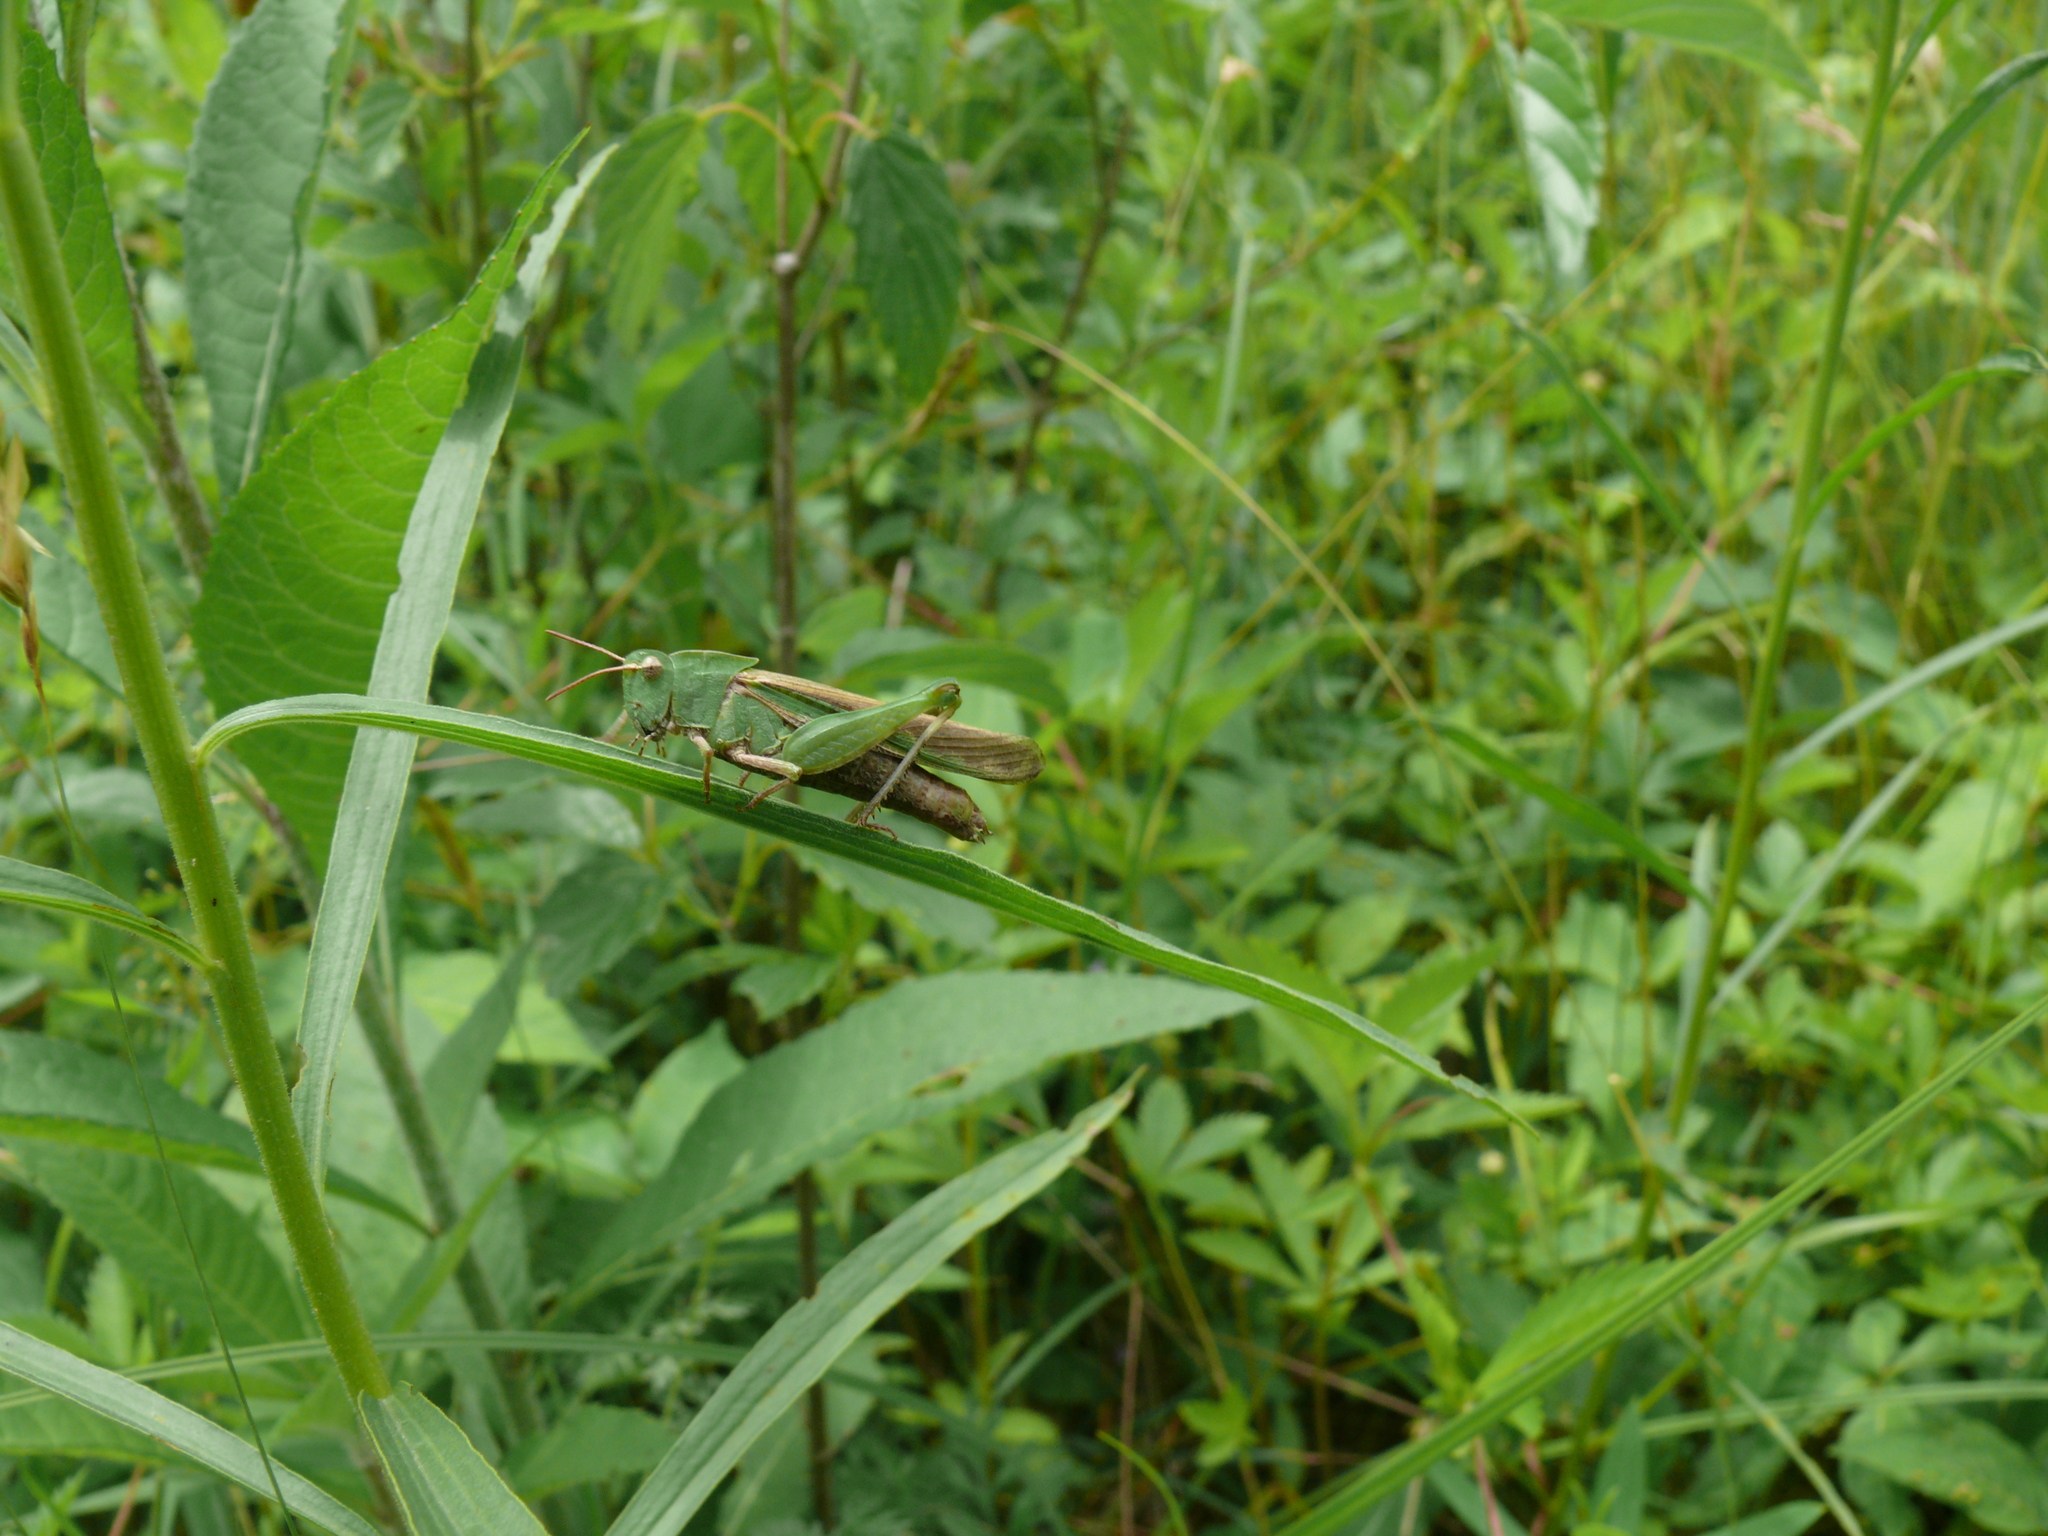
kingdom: Animalia
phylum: Arthropoda
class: Insecta
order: Orthoptera
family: Acrididae
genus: Chortophaga
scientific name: Chortophaga viridifasciata
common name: Green-striped grasshopper
